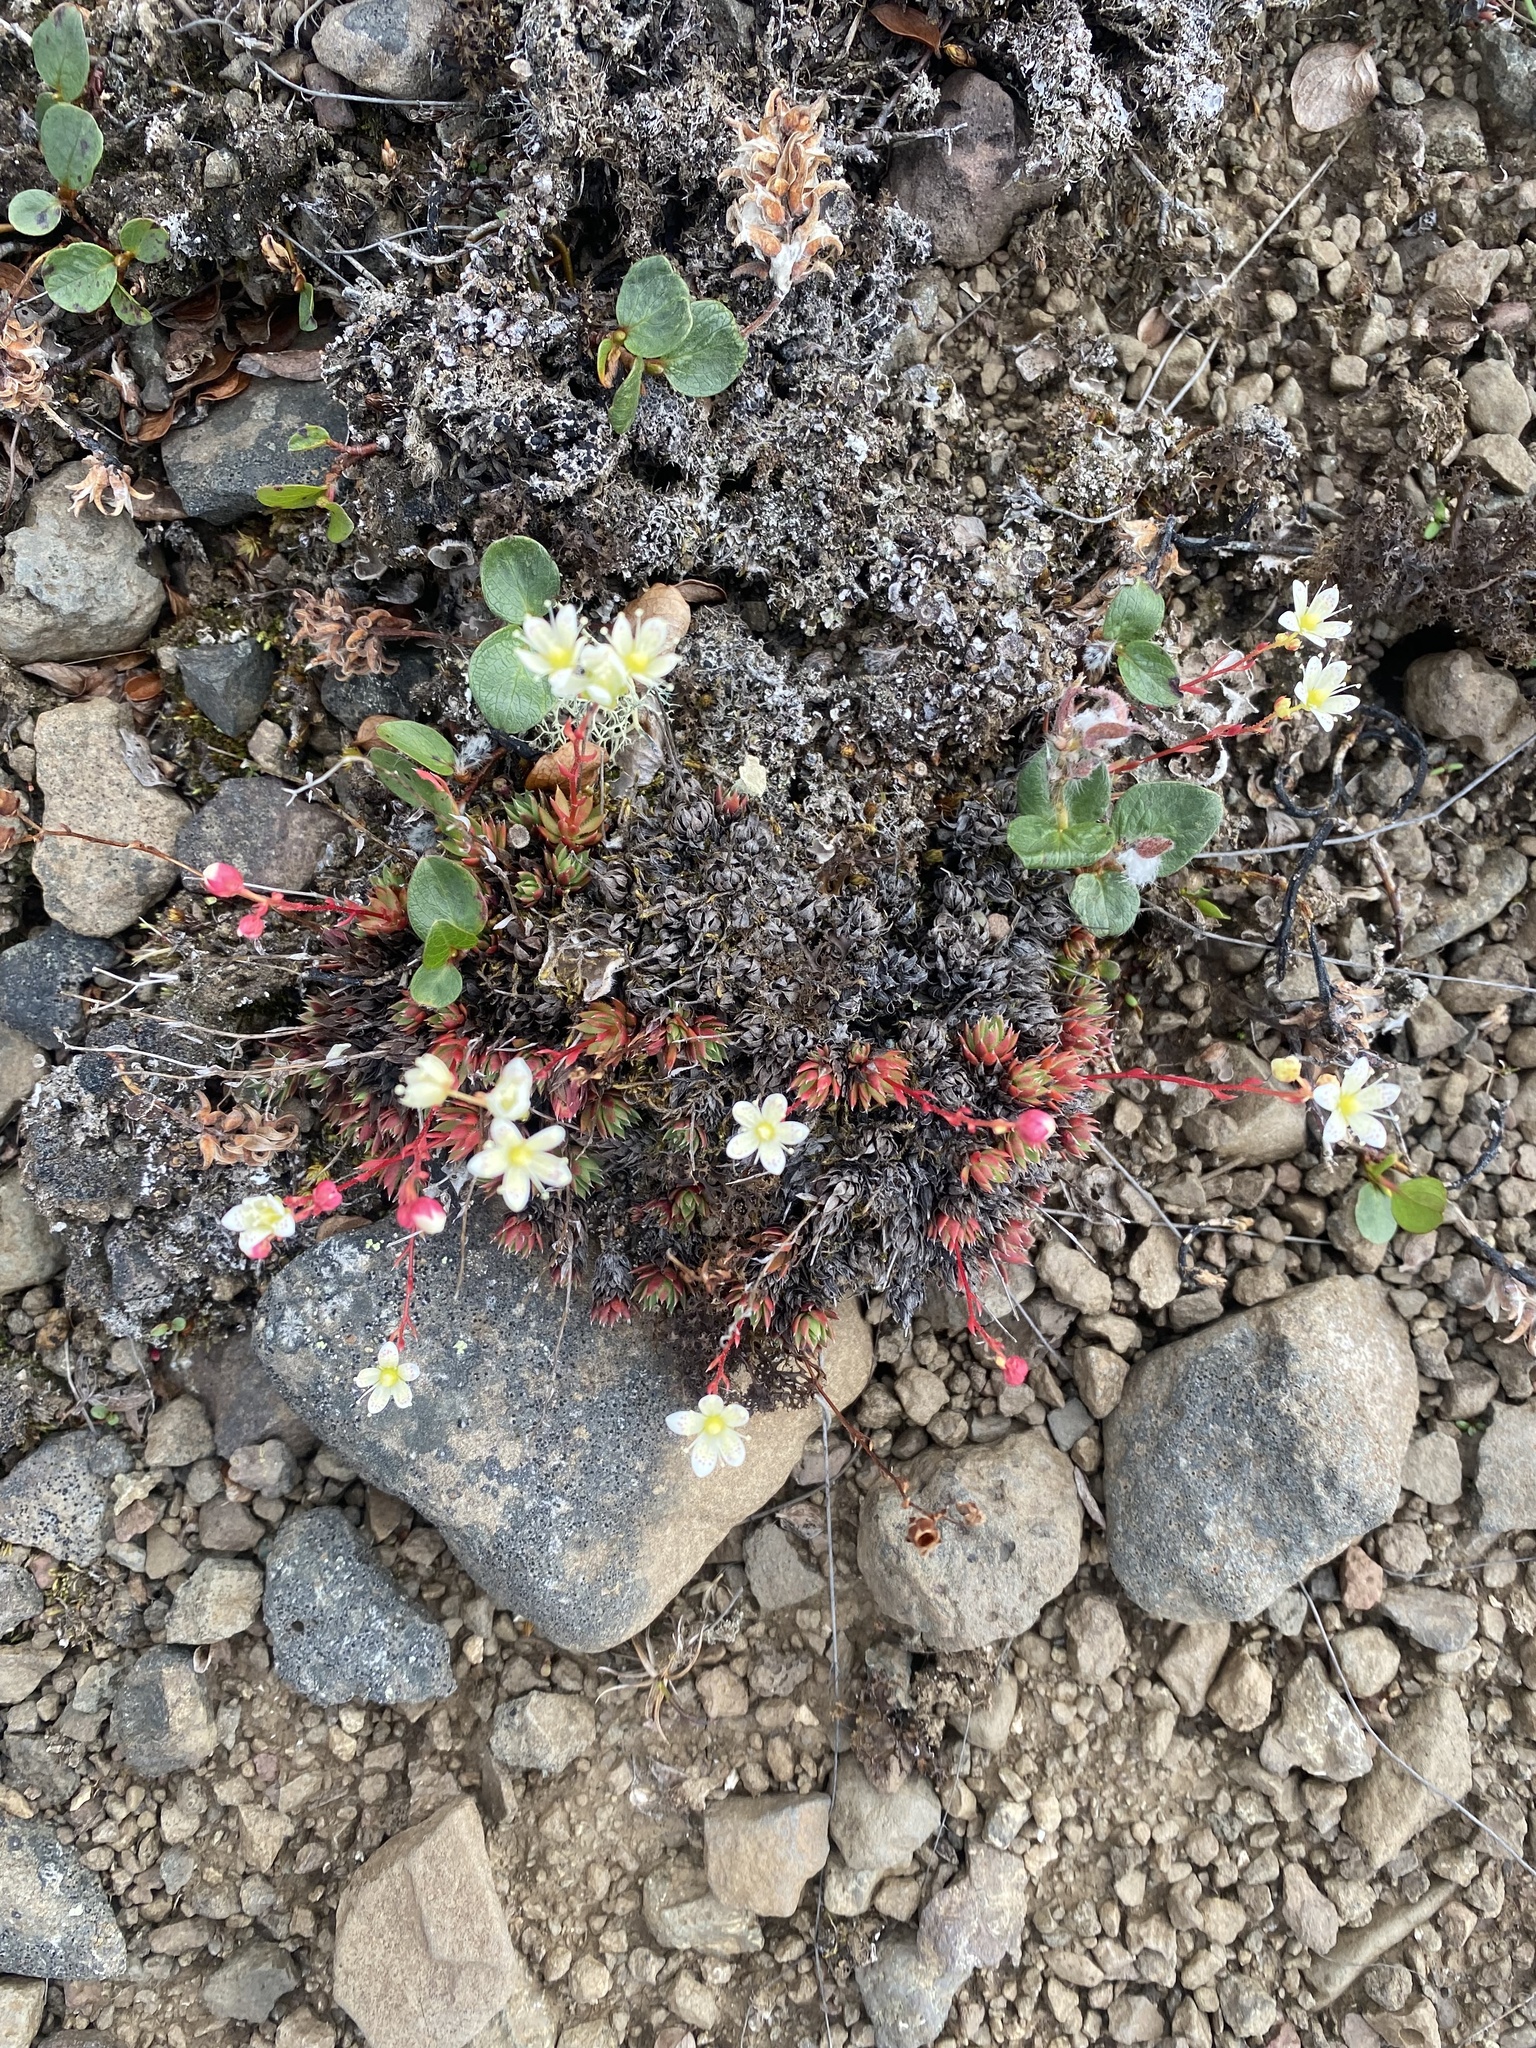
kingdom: Plantae
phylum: Tracheophyta
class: Magnoliopsida
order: Saxifragales
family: Saxifragaceae
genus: Saxifraga
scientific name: Saxifraga
